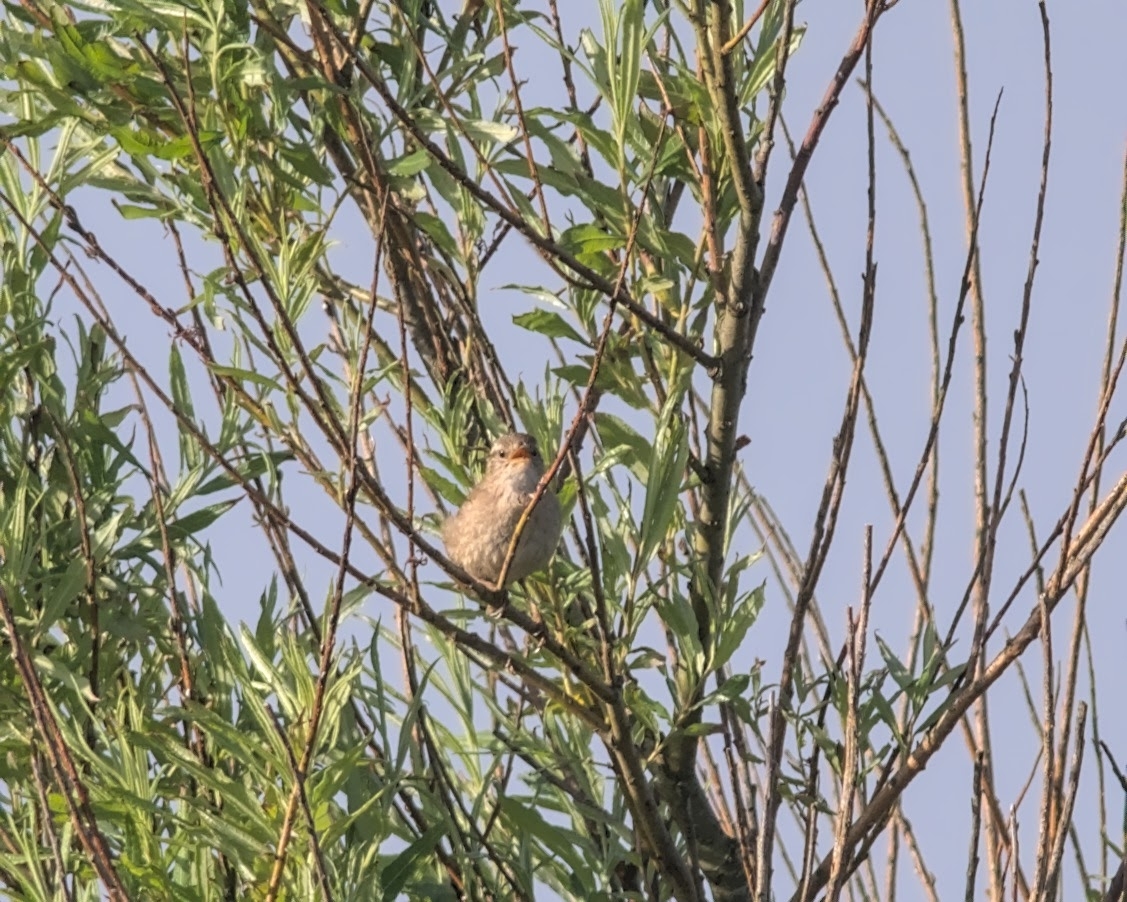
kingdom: Animalia
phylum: Chordata
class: Aves
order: Passeriformes
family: Troglodytidae
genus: Troglodytes
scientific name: Troglodytes troglodytes
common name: Eurasian wren
